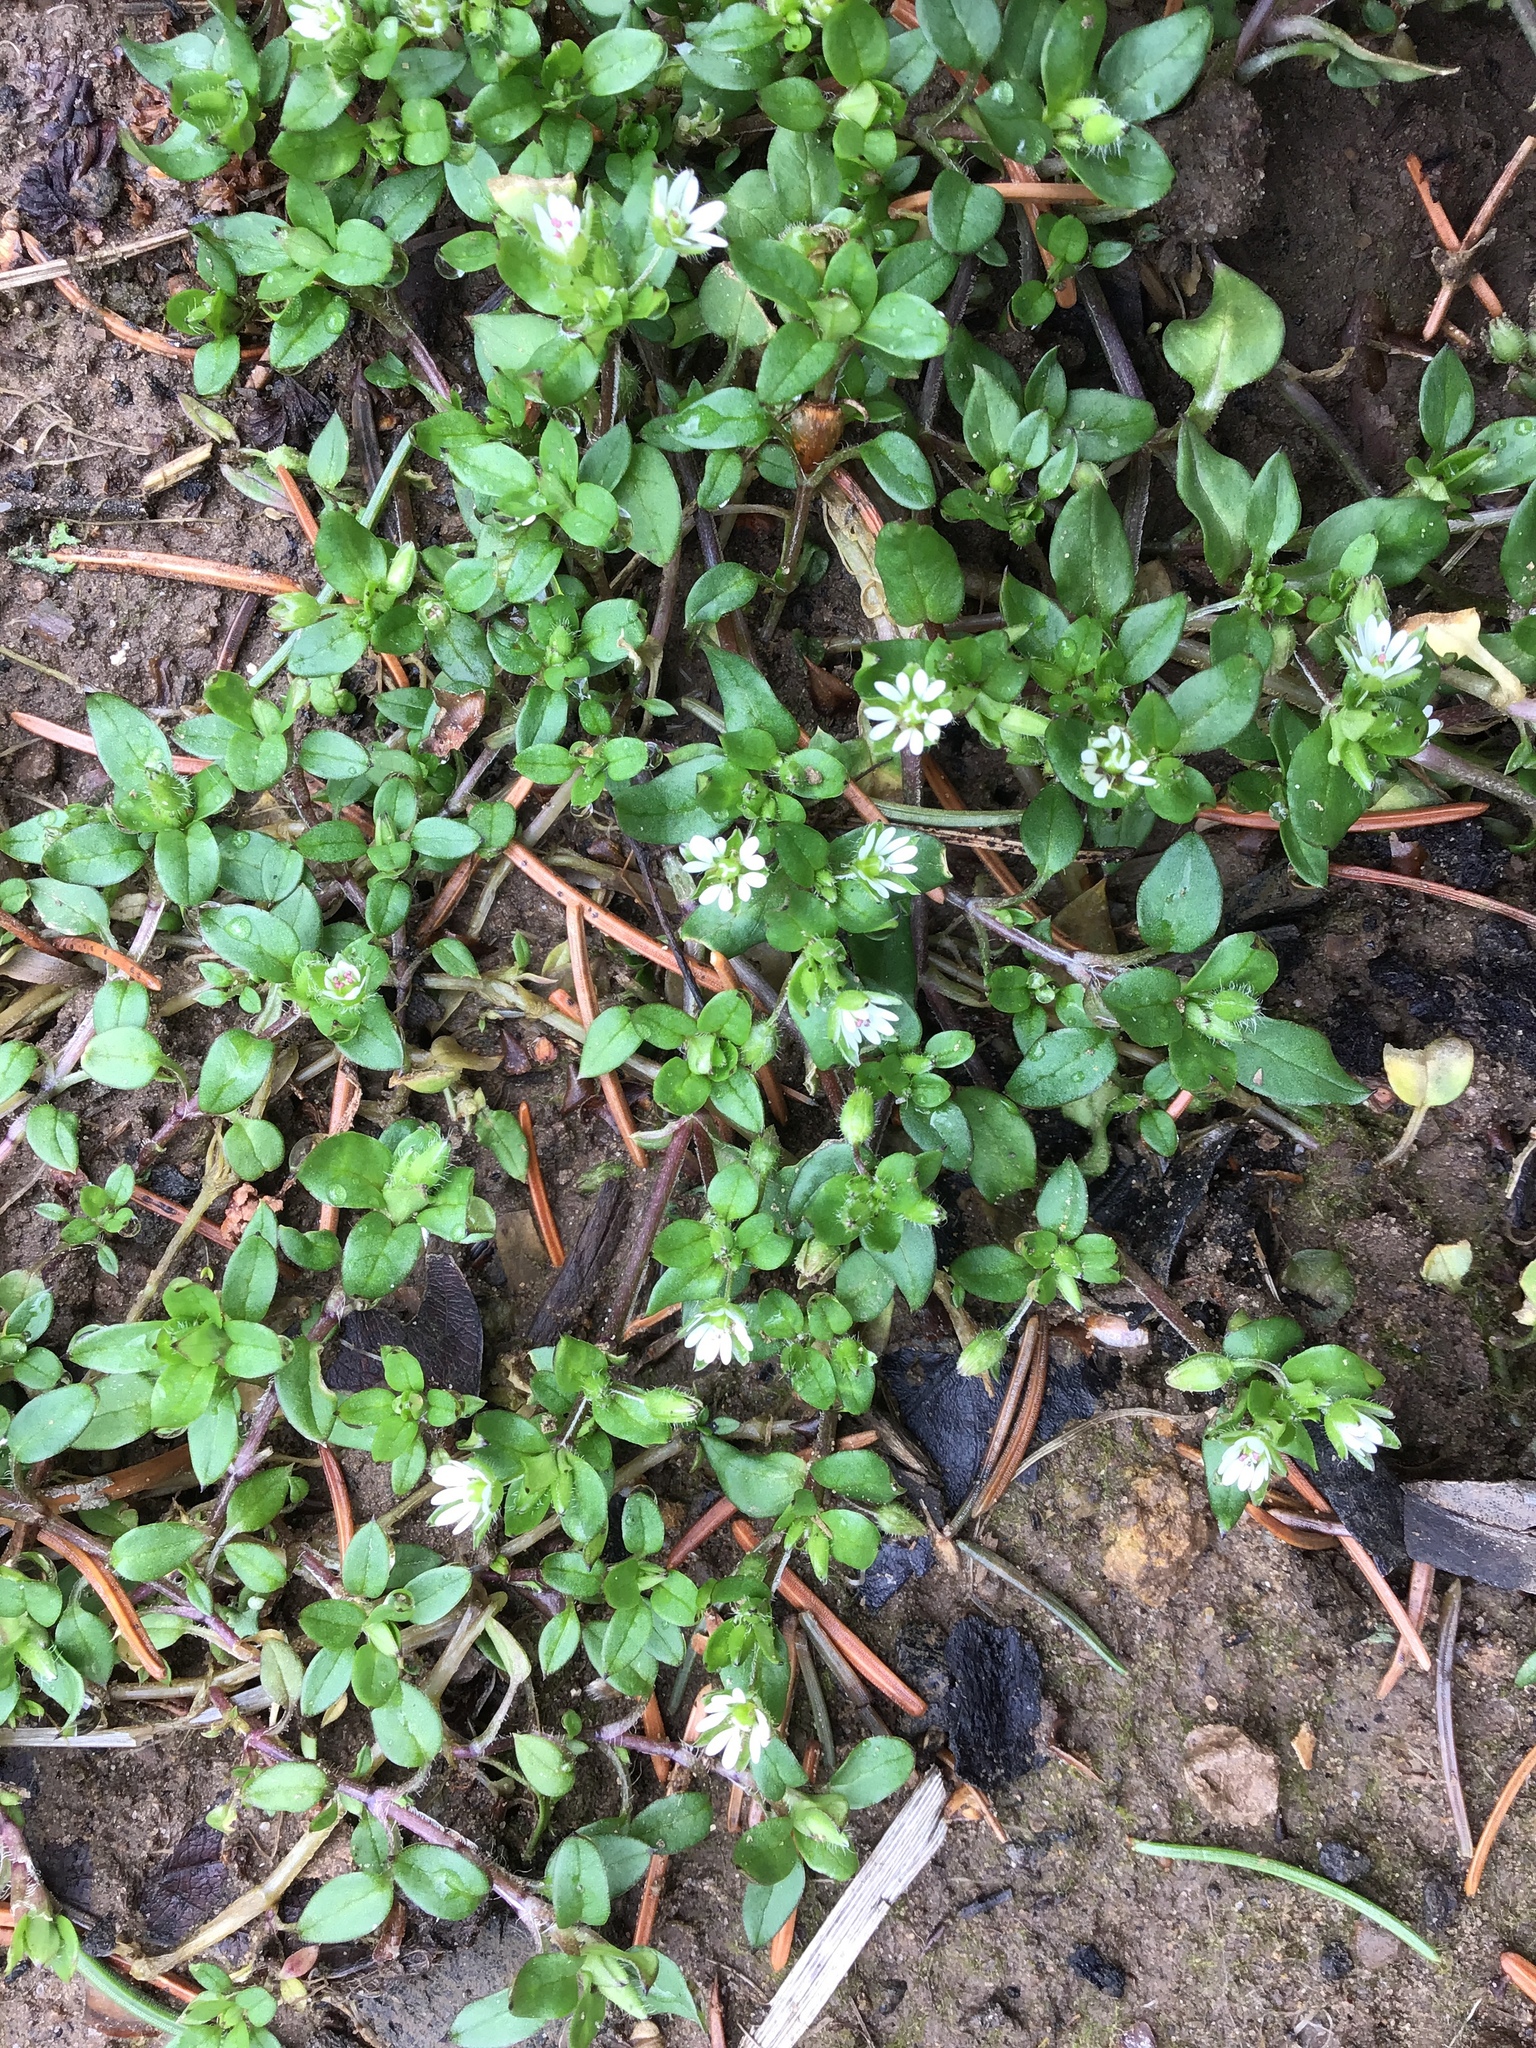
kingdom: Plantae
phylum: Tracheophyta
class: Magnoliopsida
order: Caryophyllales
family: Caryophyllaceae
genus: Stellaria
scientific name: Stellaria media
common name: Common chickweed
